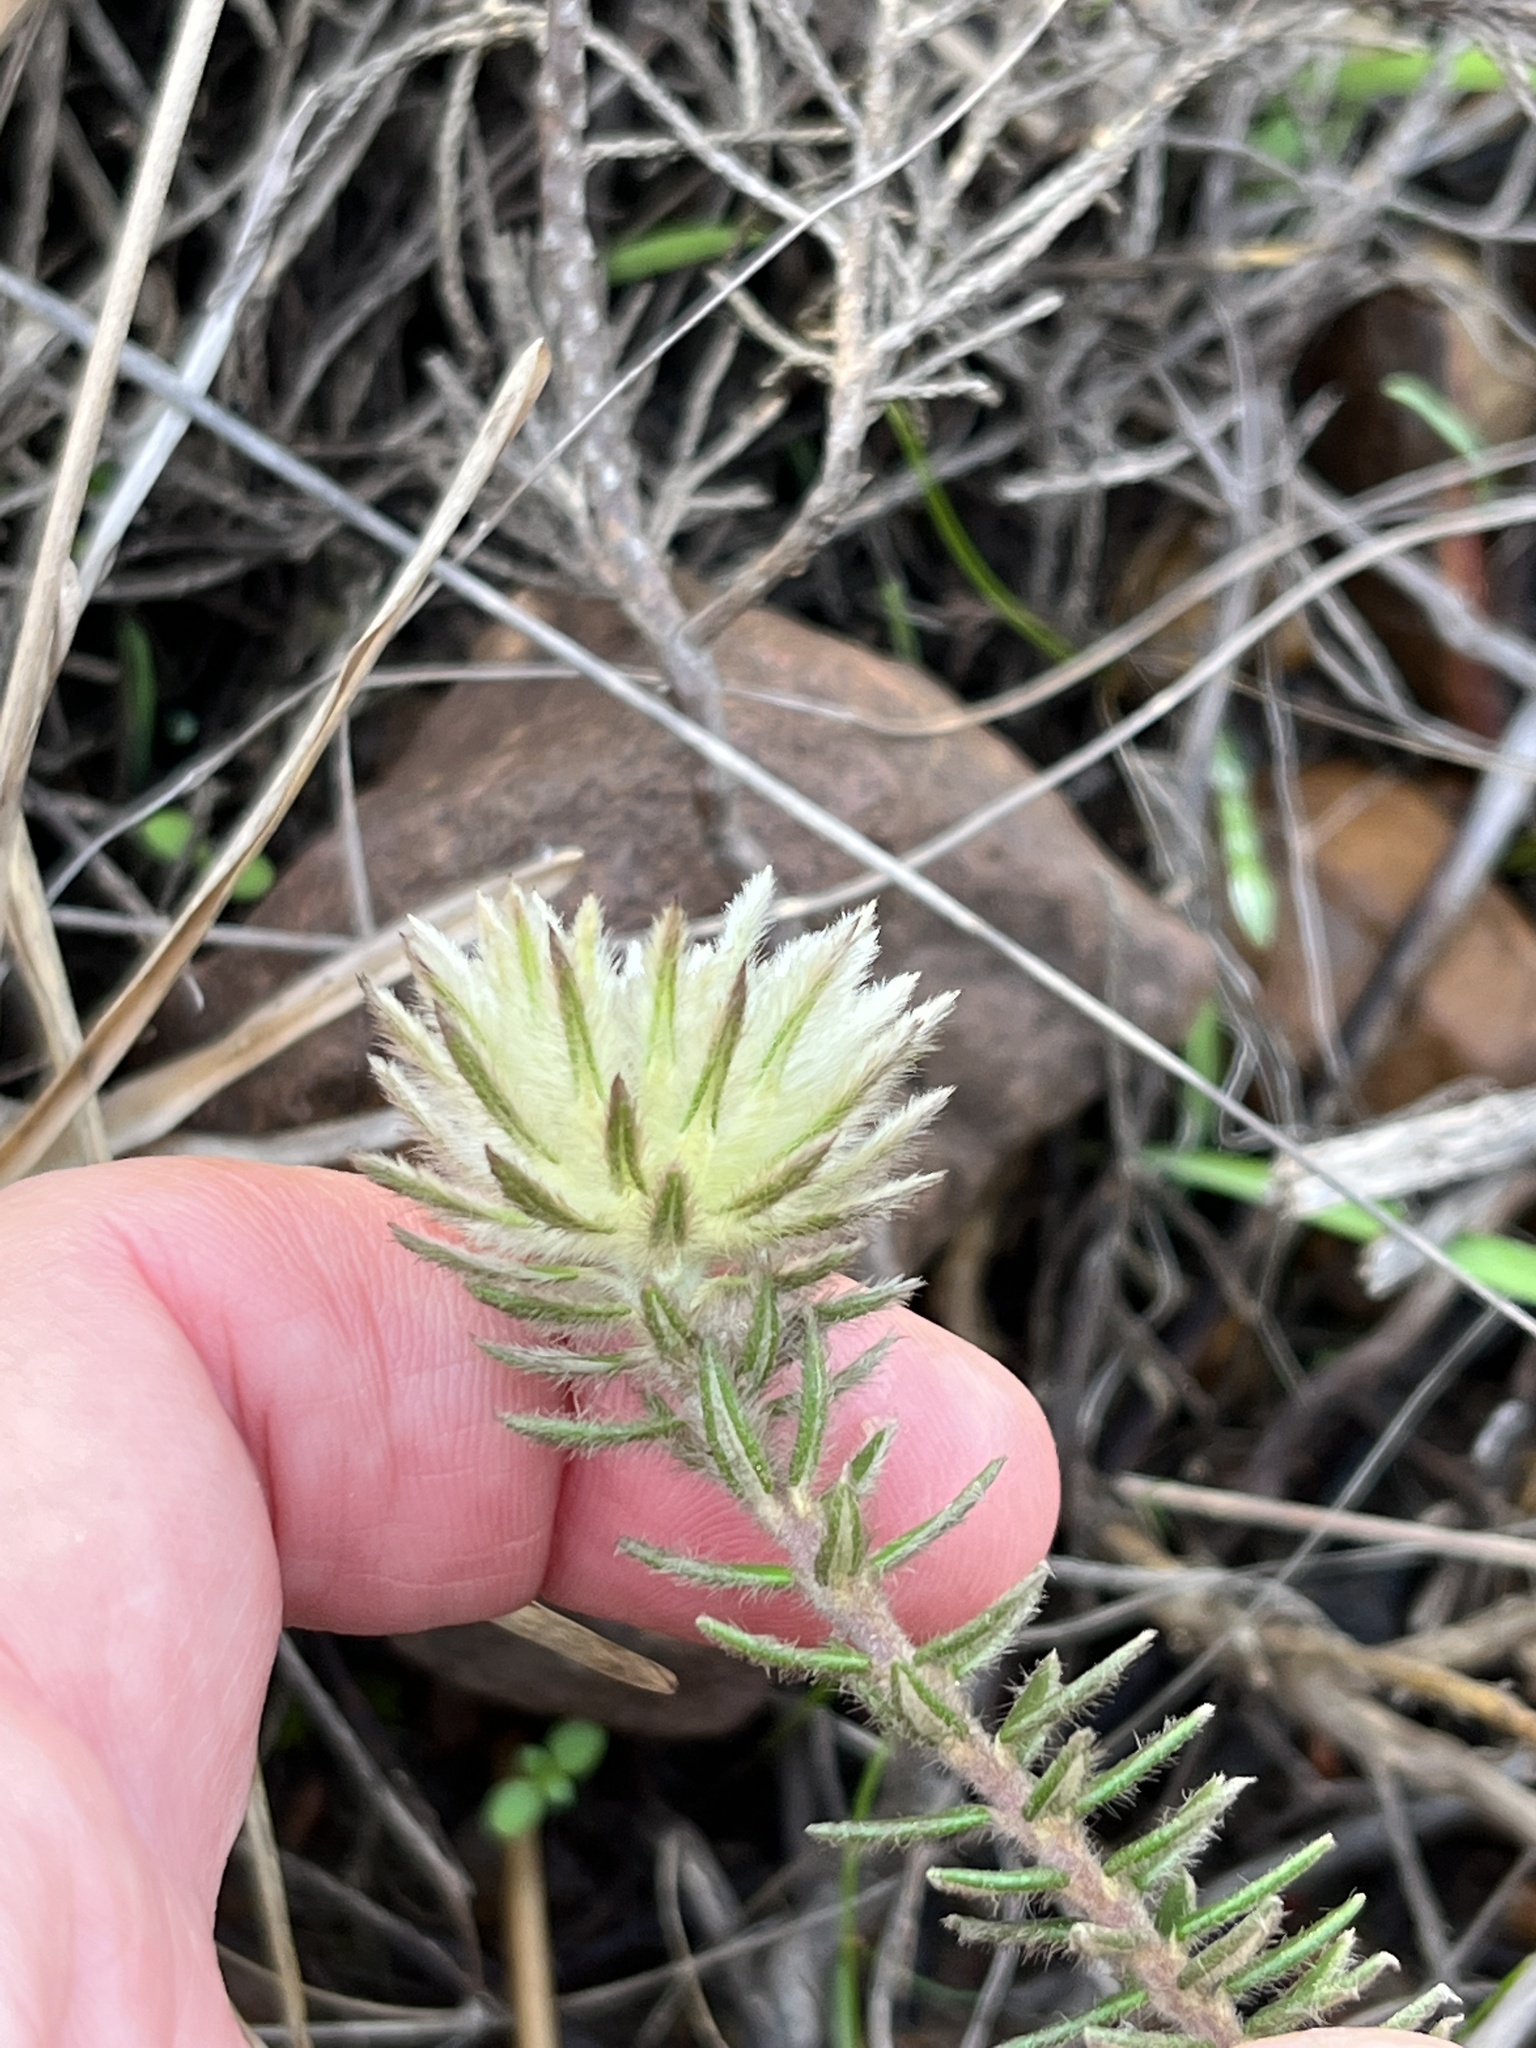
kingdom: Plantae
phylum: Tracheophyta
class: Magnoliopsida
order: Rosales
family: Rhamnaceae
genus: Phylica
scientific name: Phylica lucida
